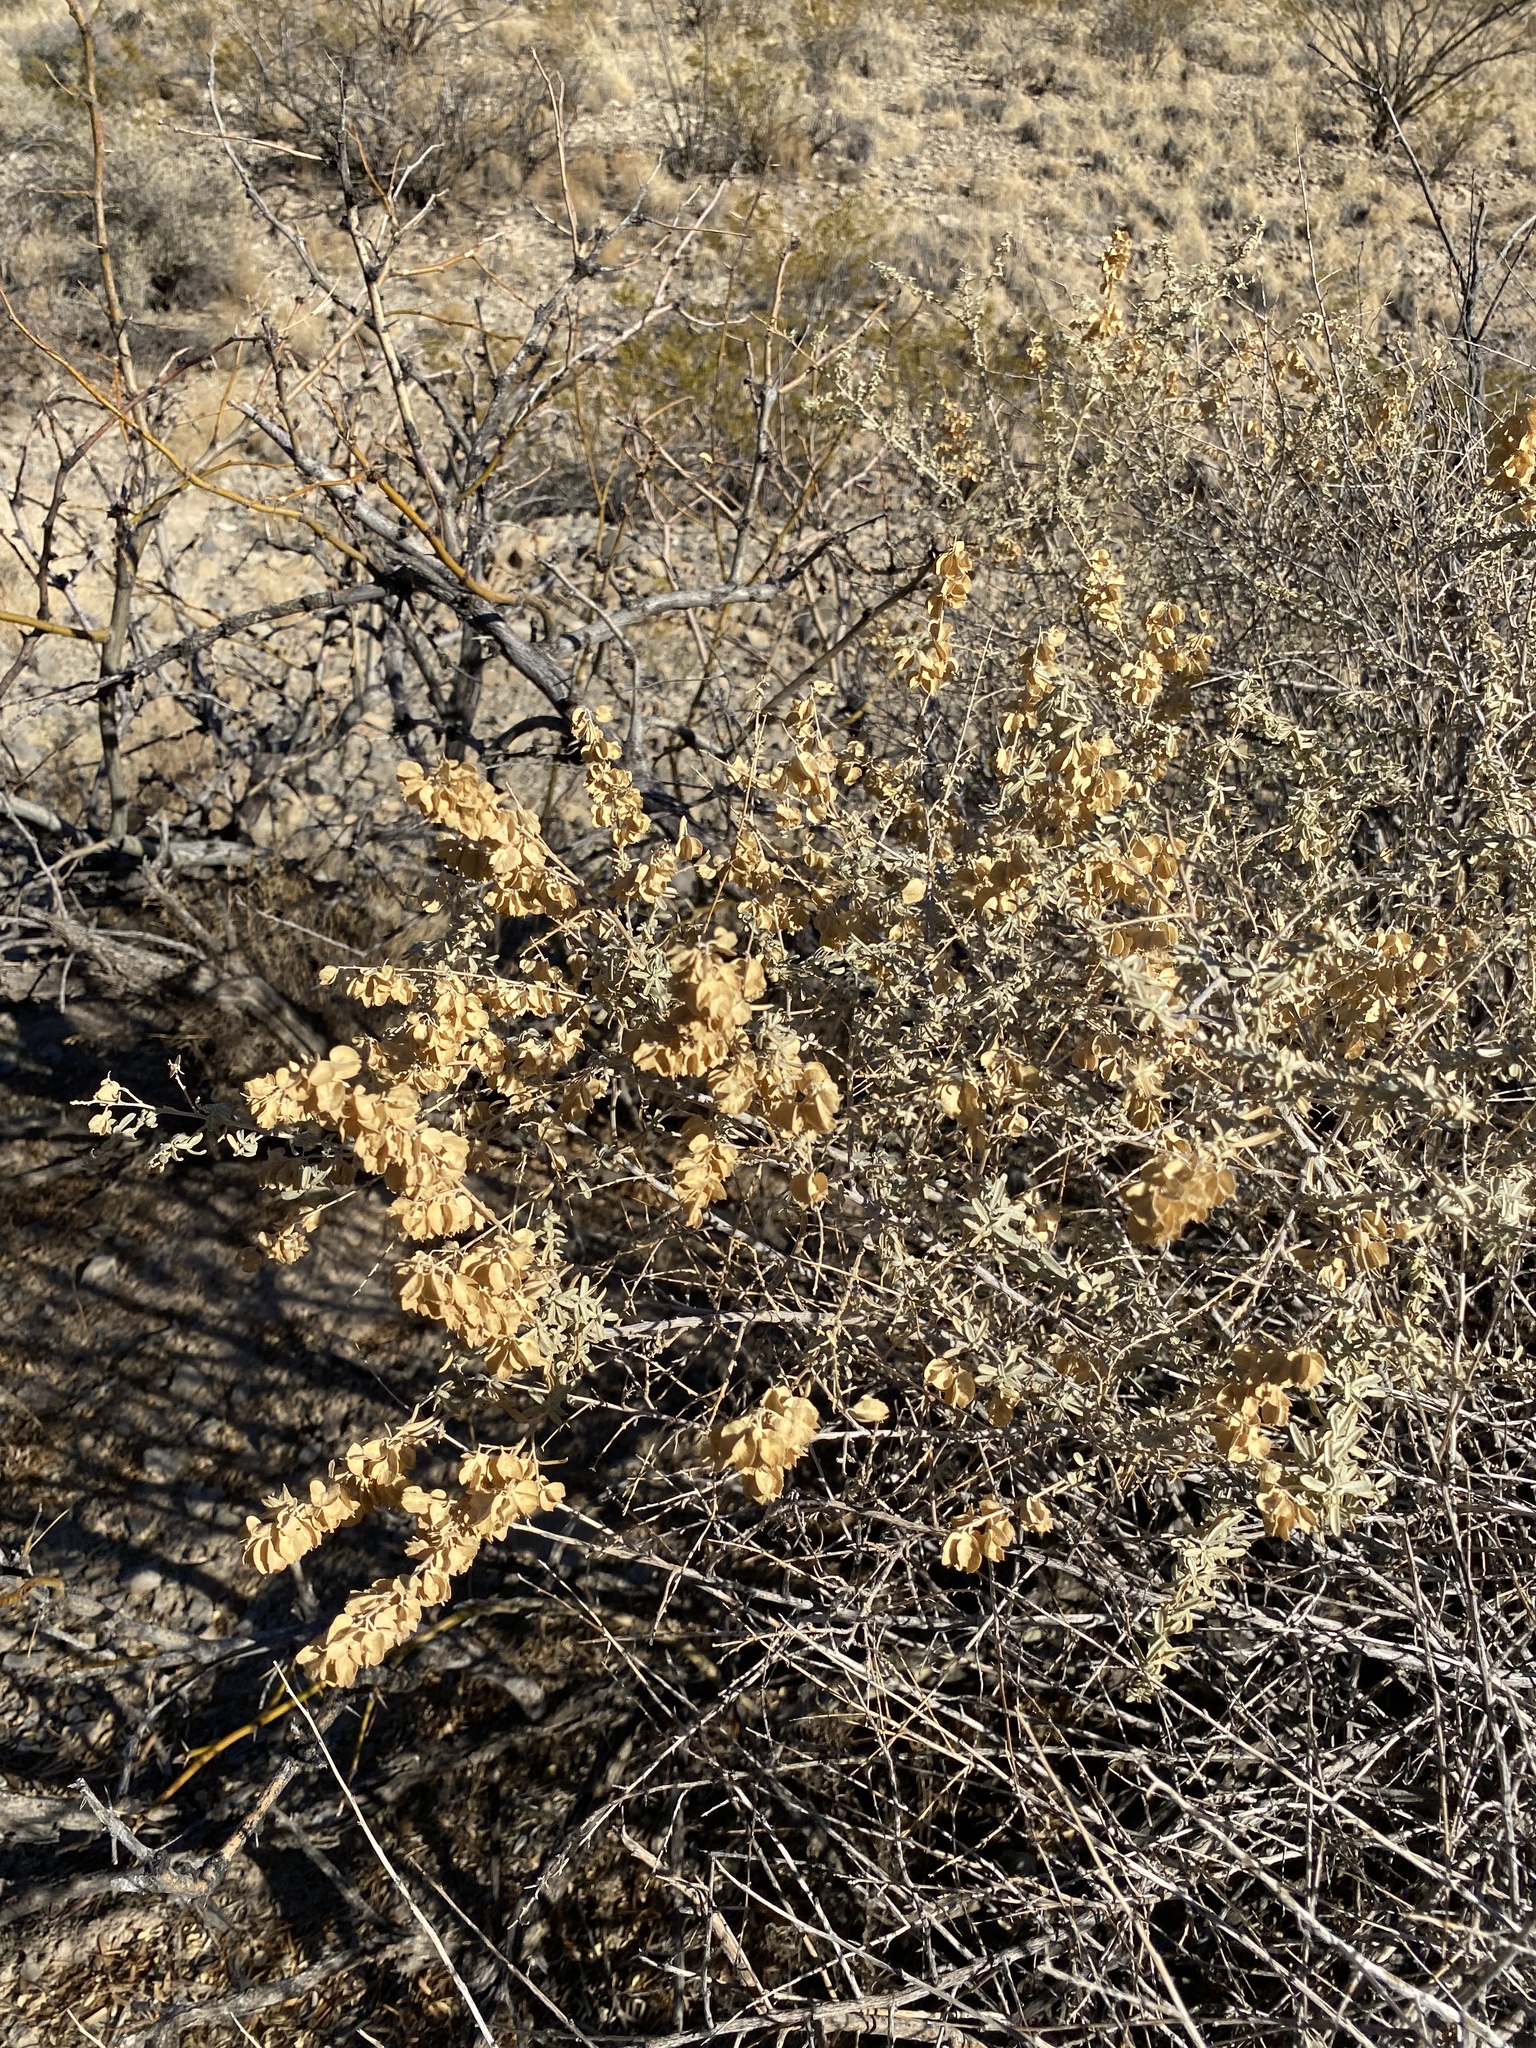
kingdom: Plantae
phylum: Tracheophyta
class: Magnoliopsida
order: Caryophyllales
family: Amaranthaceae
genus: Atriplex
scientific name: Atriplex canescens
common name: Four-wing saltbush
